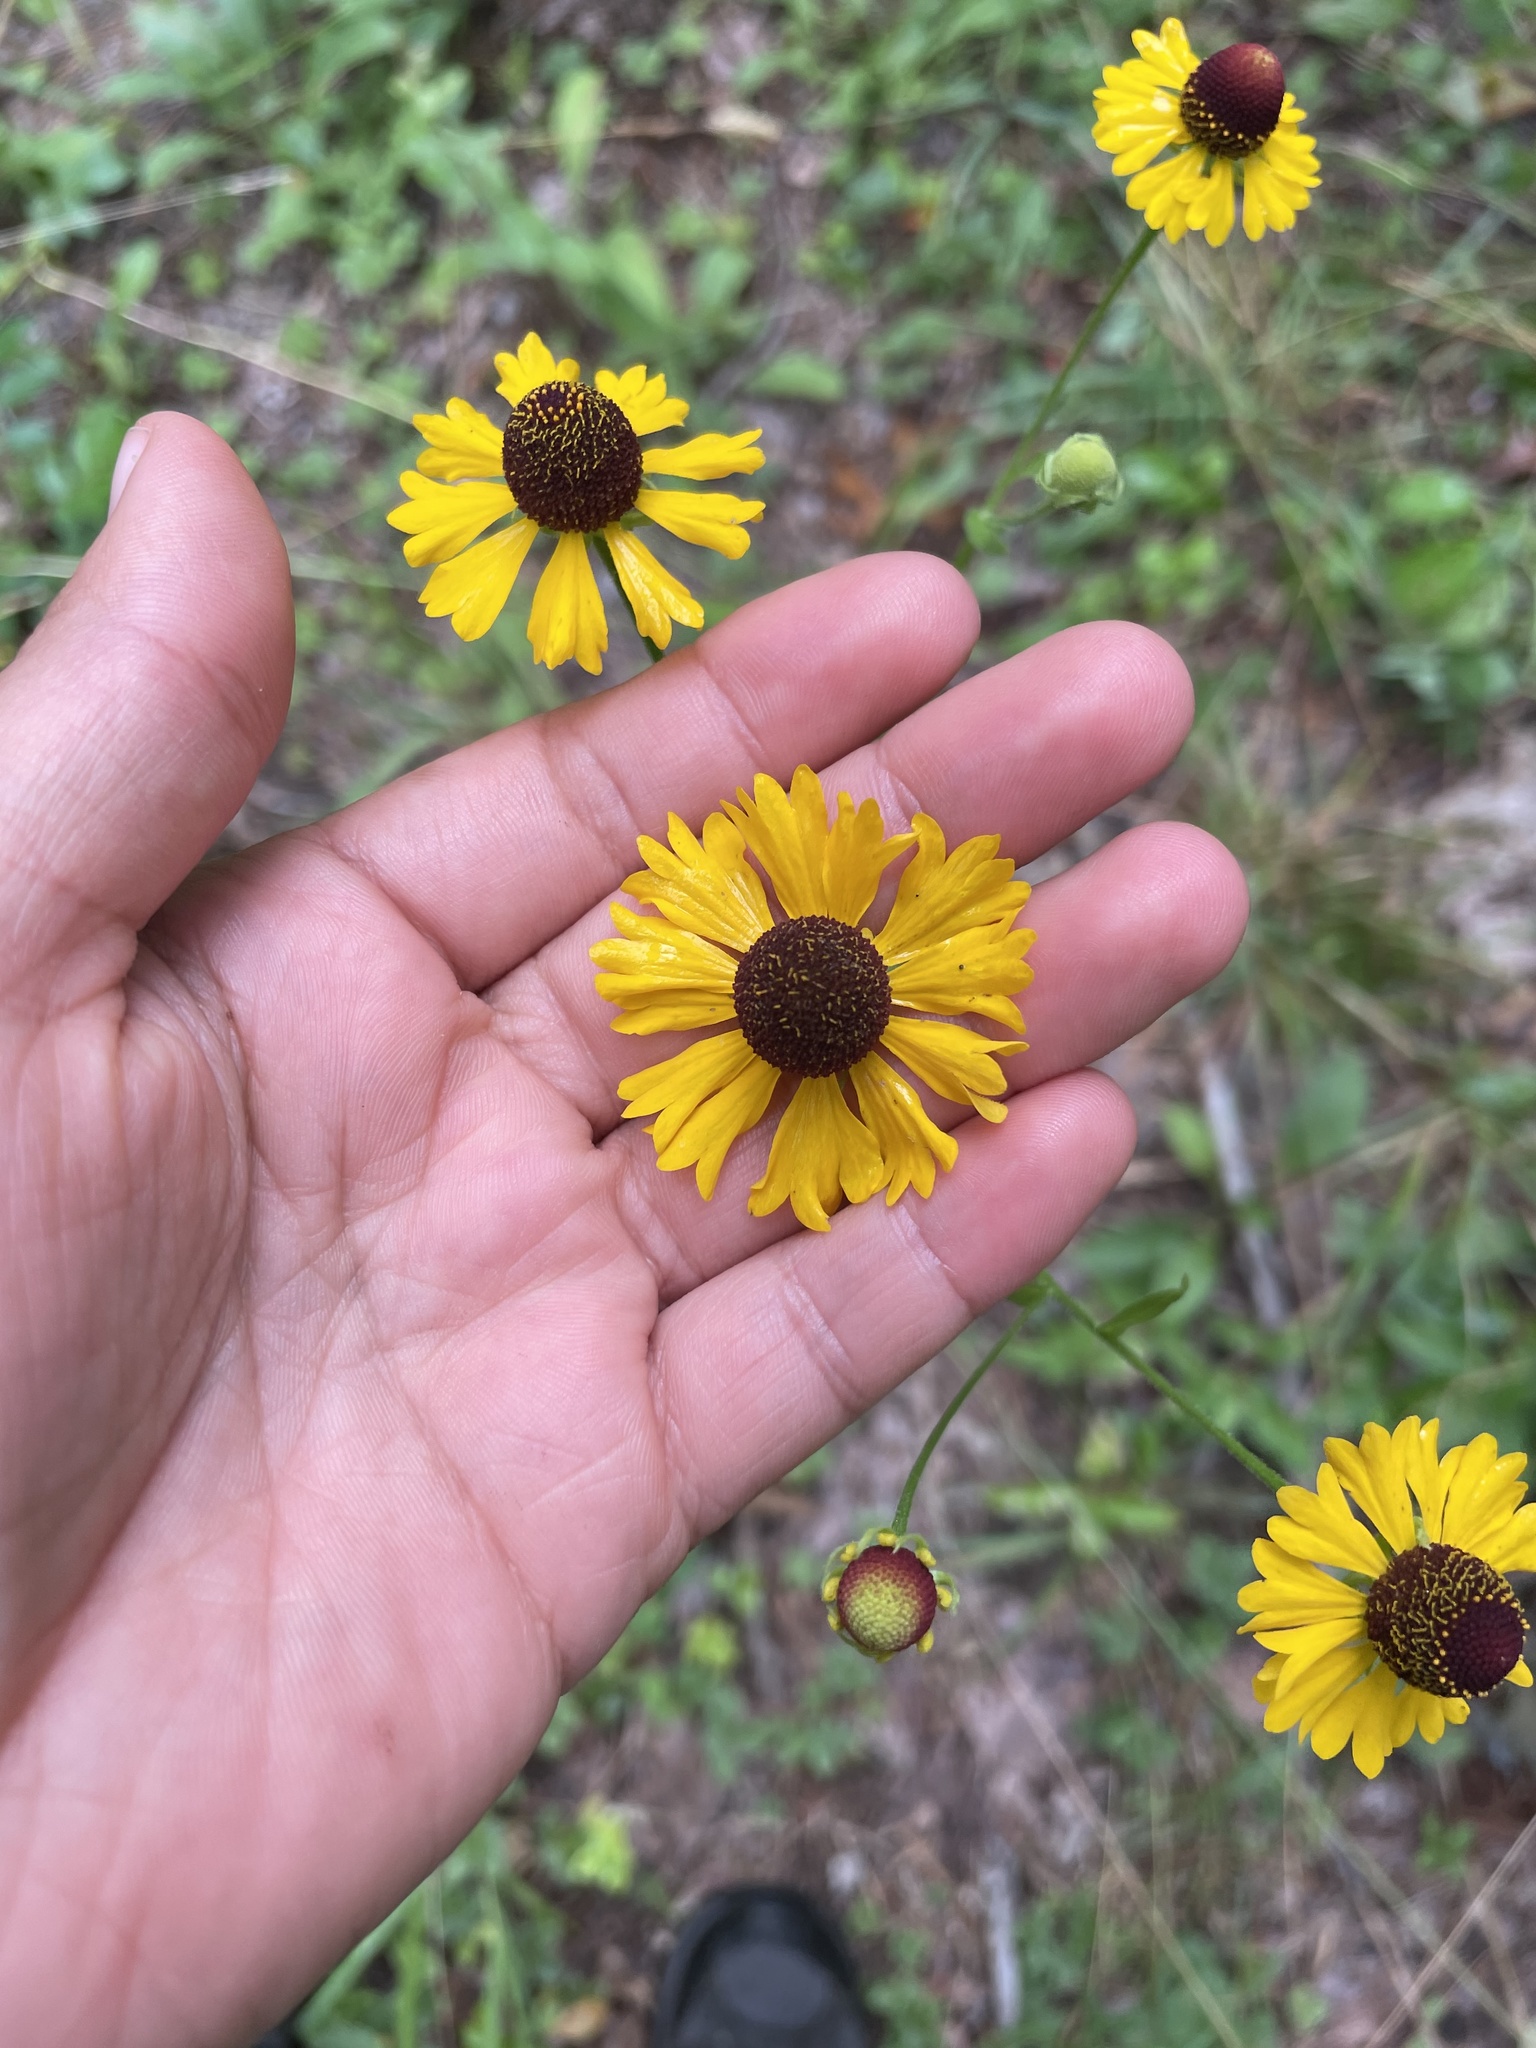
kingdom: Plantae
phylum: Tracheophyta
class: Magnoliopsida
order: Asterales
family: Asteraceae
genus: Helenium
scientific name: Helenium flexuosum
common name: Naked-flowered sneezeweed
